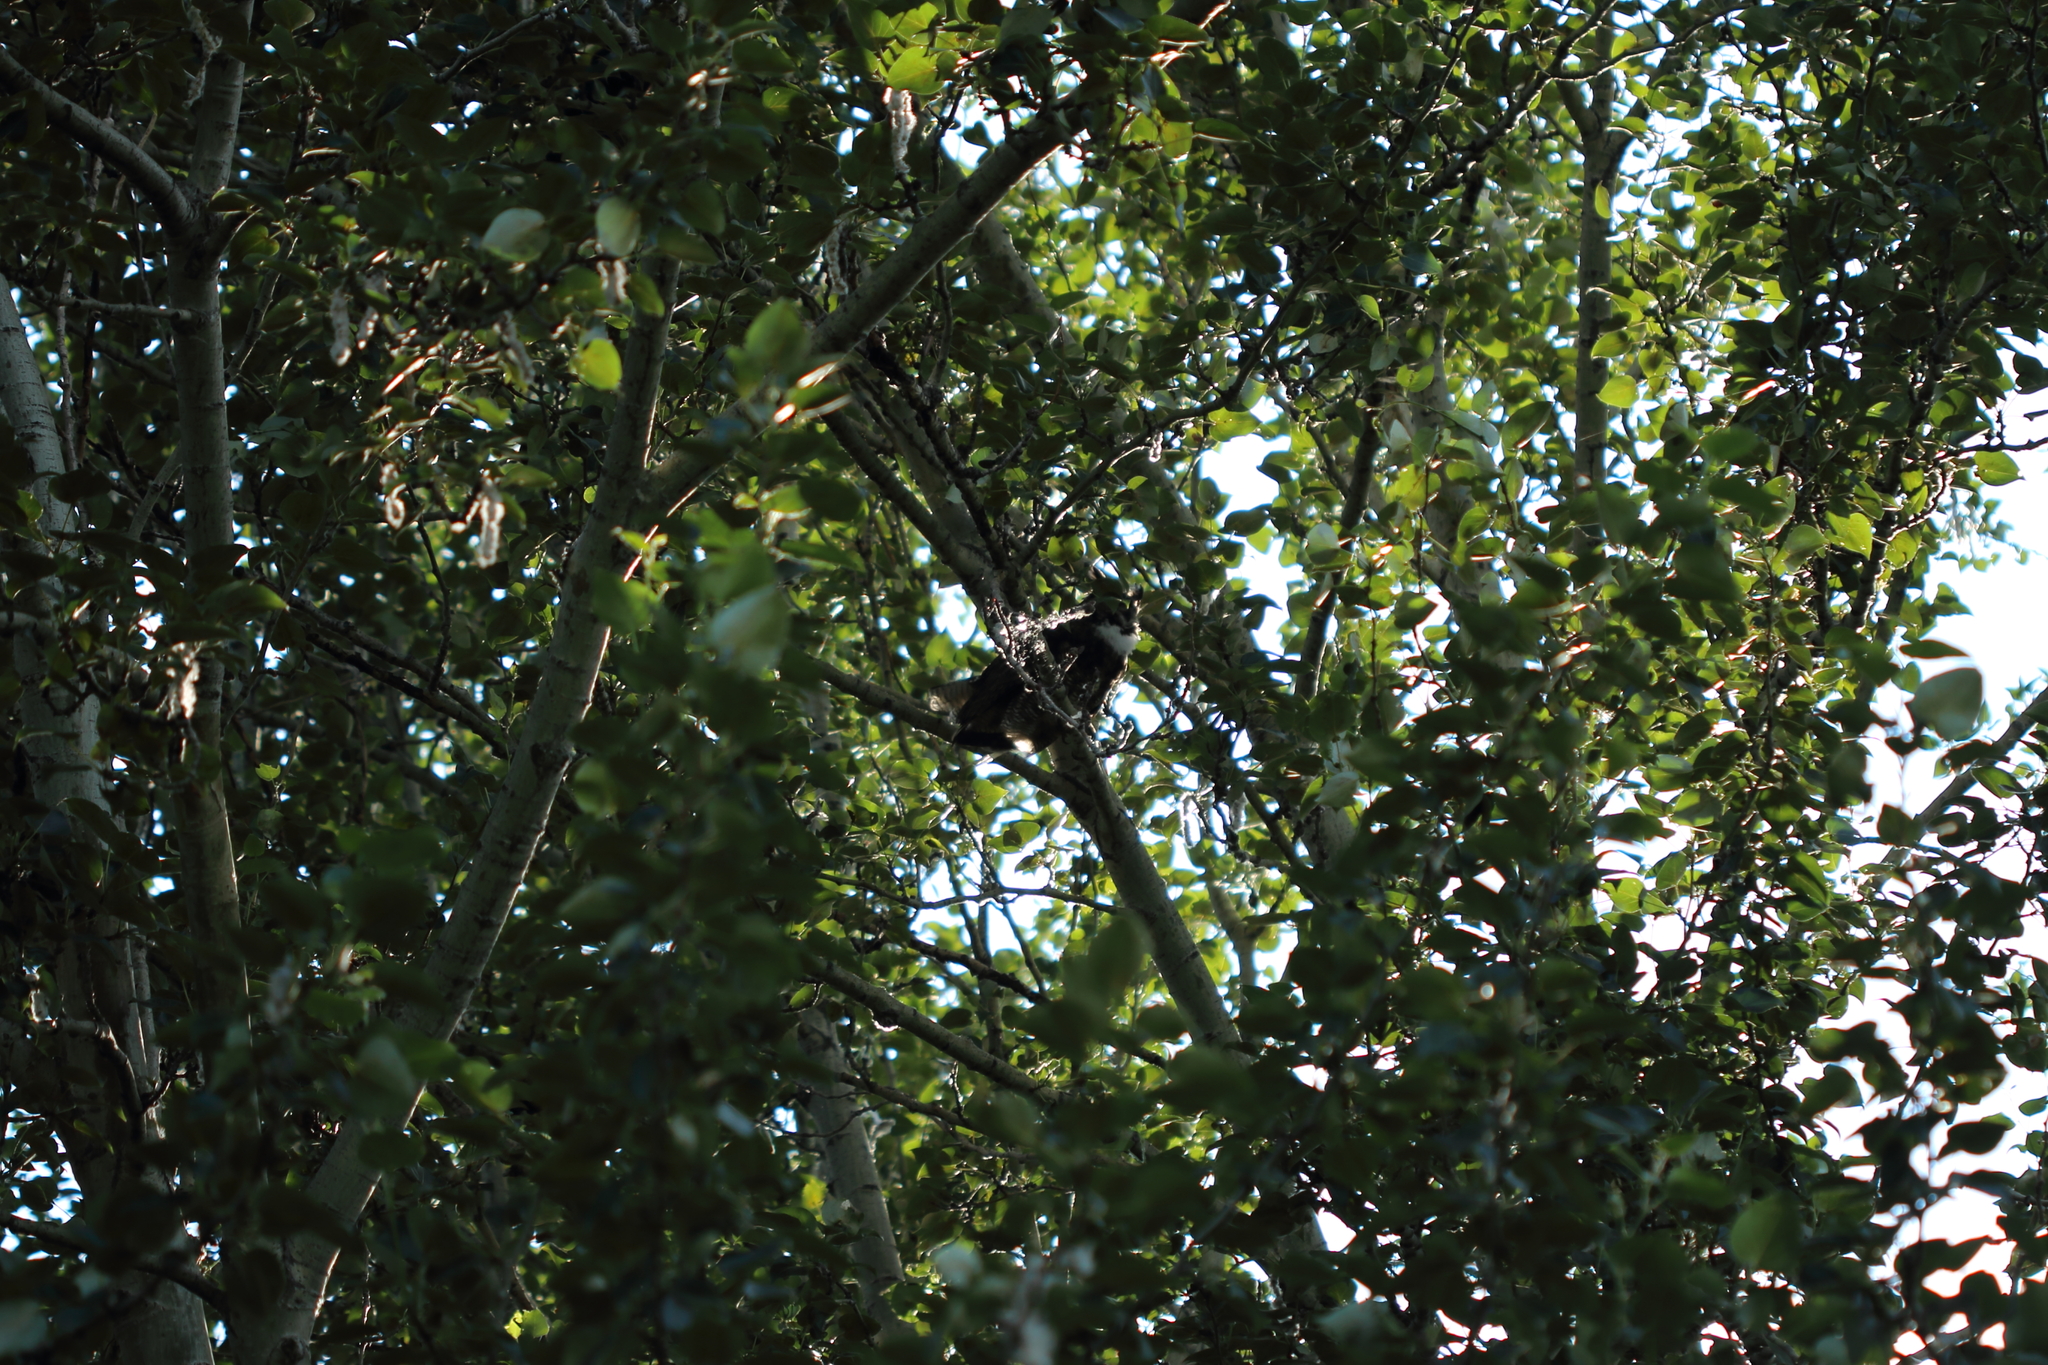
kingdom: Animalia
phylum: Chordata
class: Aves
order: Strigiformes
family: Strigidae
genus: Bubo
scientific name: Bubo virginianus
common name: Great horned owl
